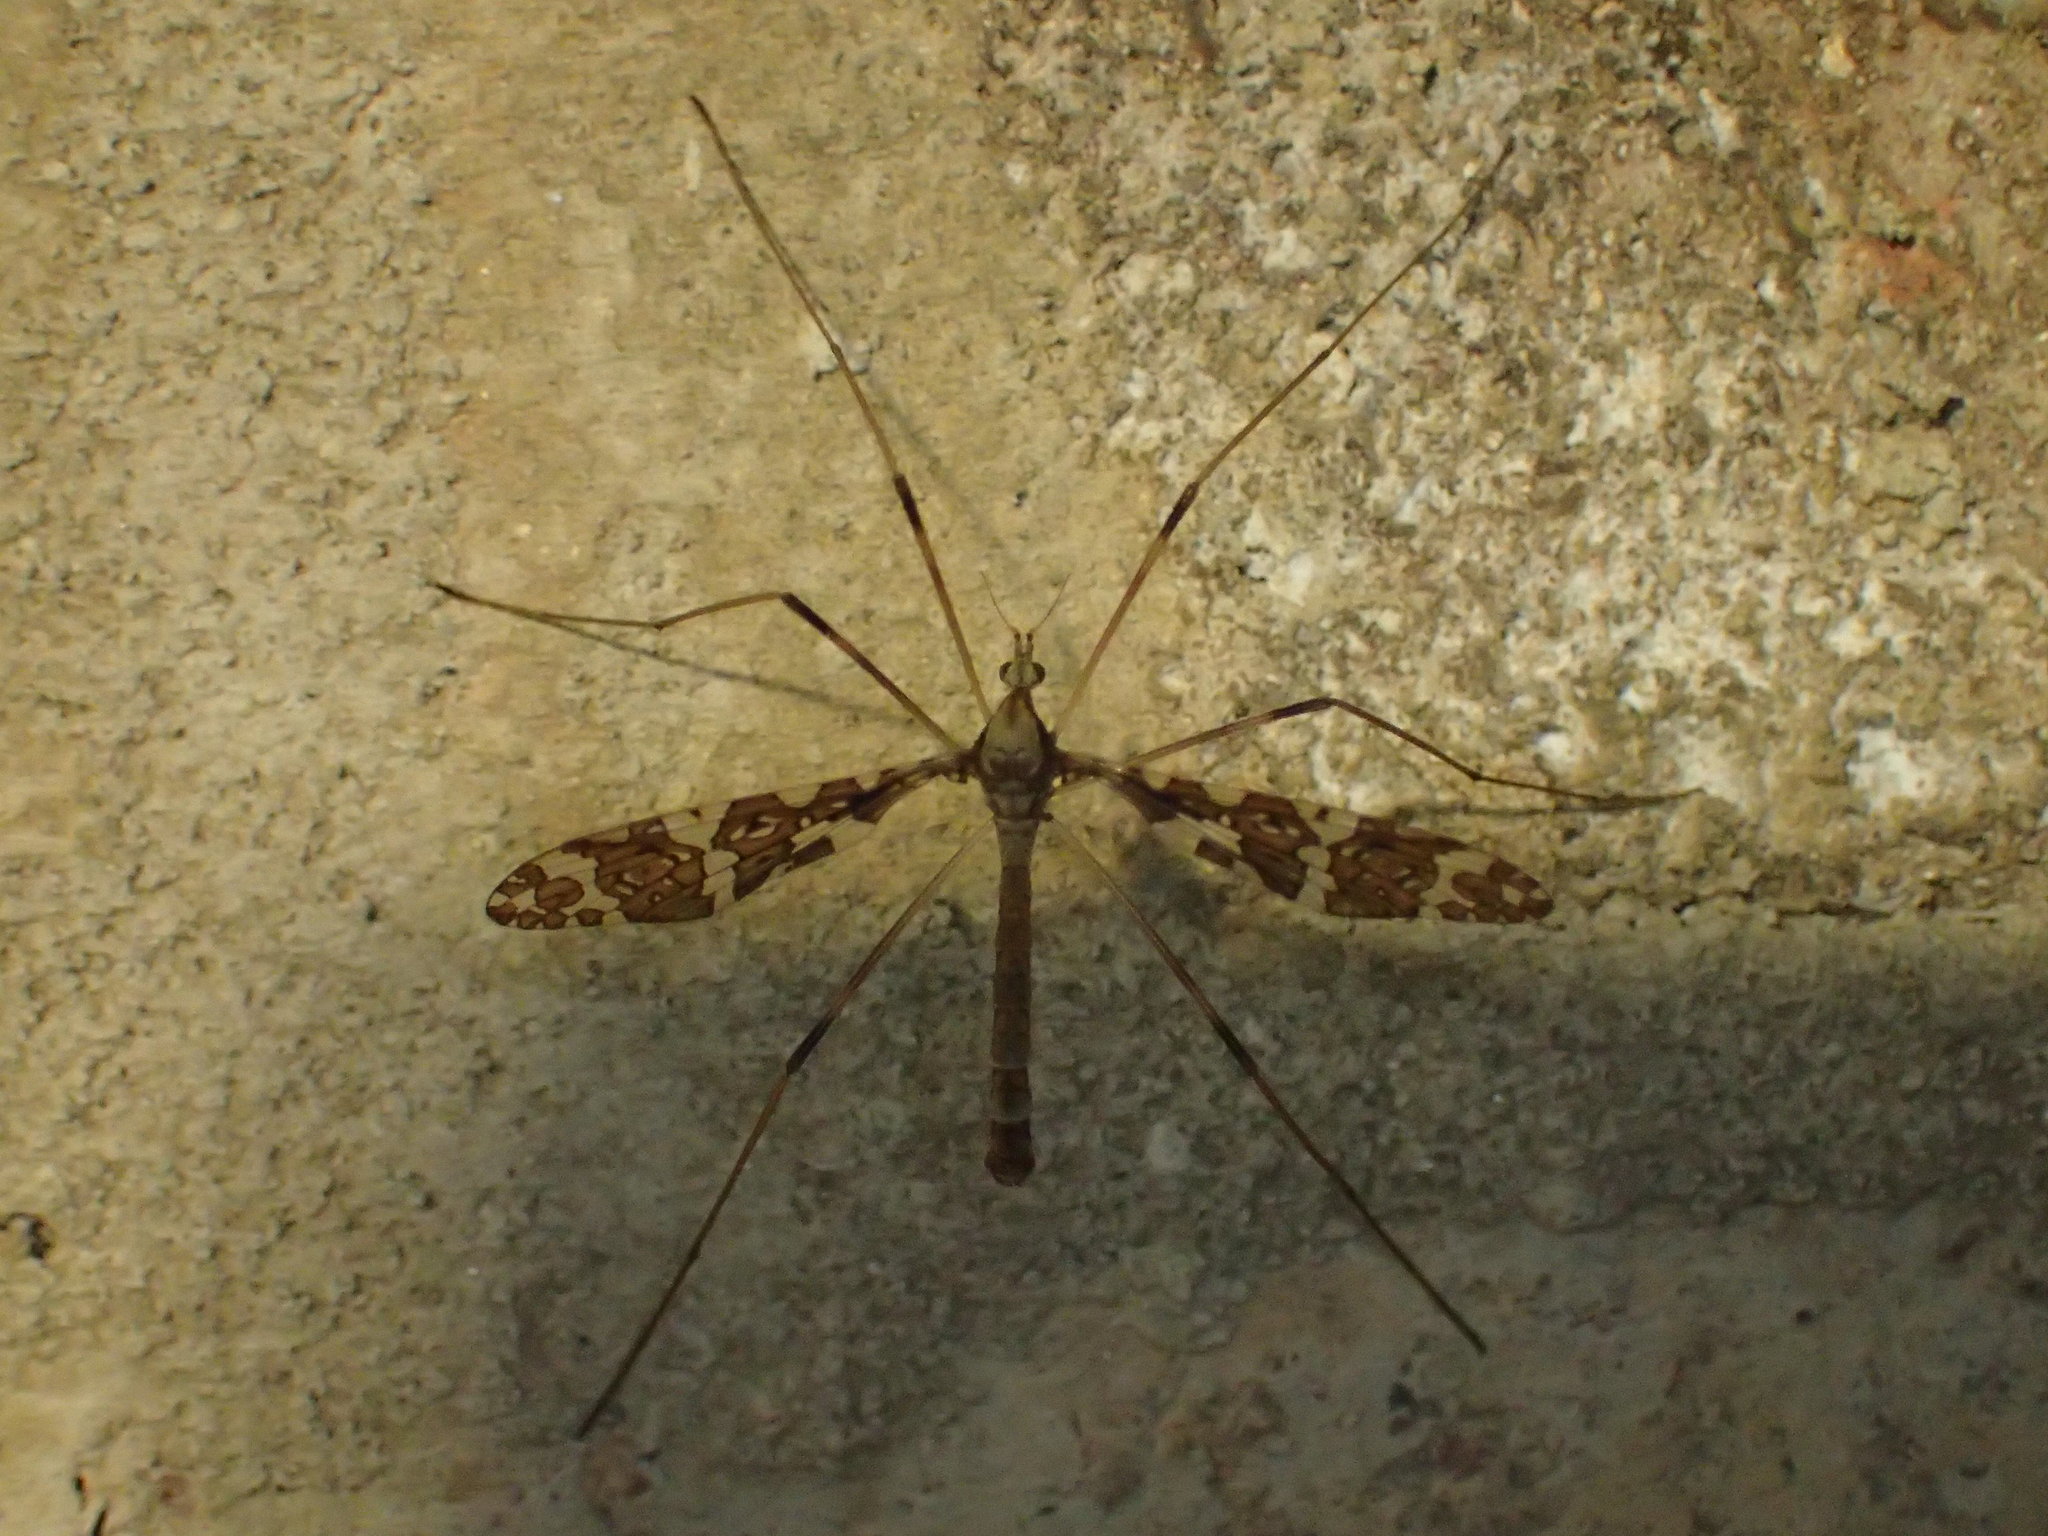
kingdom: Animalia
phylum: Arthropoda
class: Insecta
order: Diptera
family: Limoniidae
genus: Epiphragma
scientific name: Epiphragma fasciapenne
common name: Band-winged crane fly
